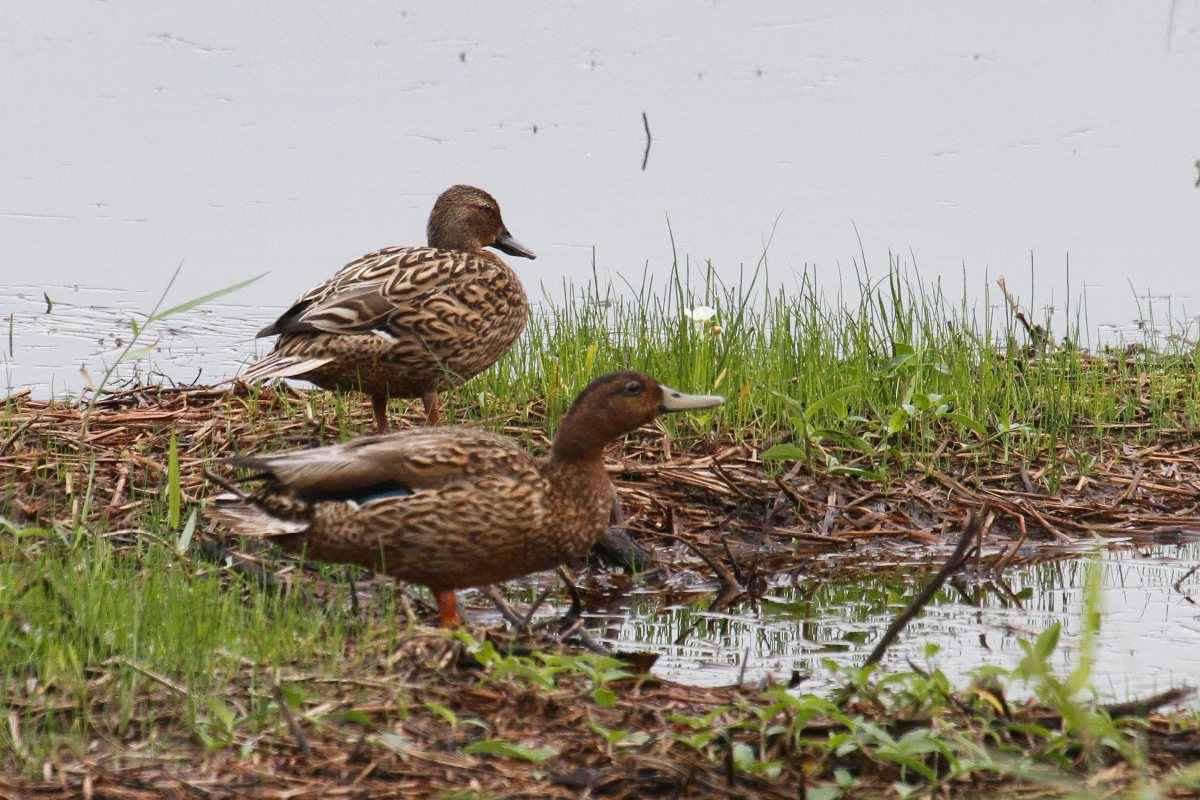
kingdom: Animalia
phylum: Chordata
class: Aves
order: Anseriformes
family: Anatidae
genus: Anas
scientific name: Anas wyvilliana
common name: Hawaiian duck
